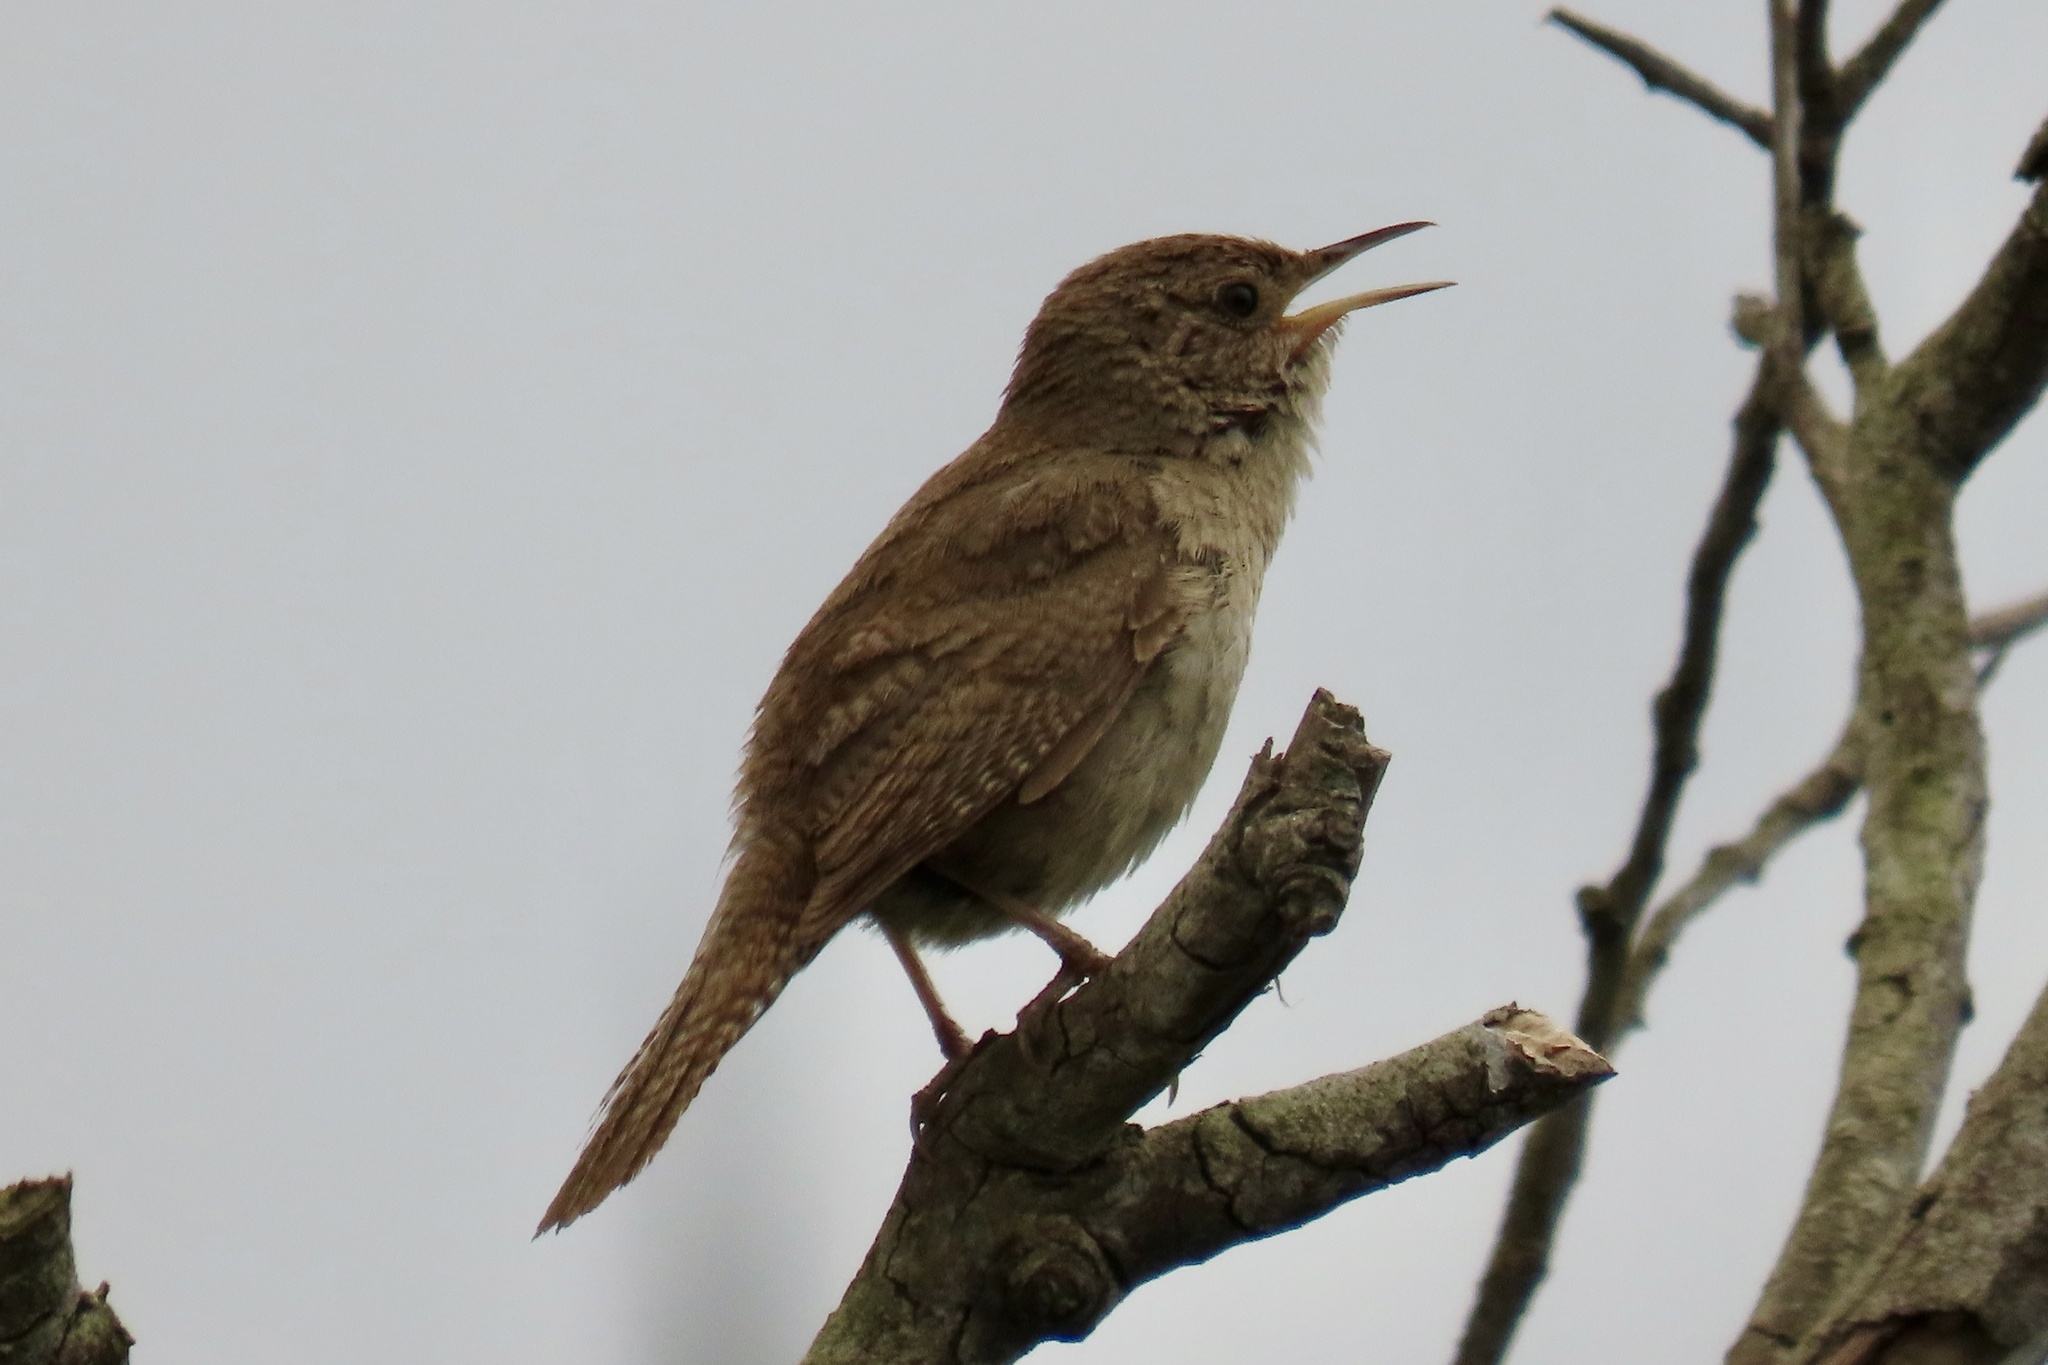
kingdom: Animalia
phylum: Chordata
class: Aves
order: Passeriformes
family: Troglodytidae
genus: Troglodytes
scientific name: Troglodytes aedon
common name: House wren
